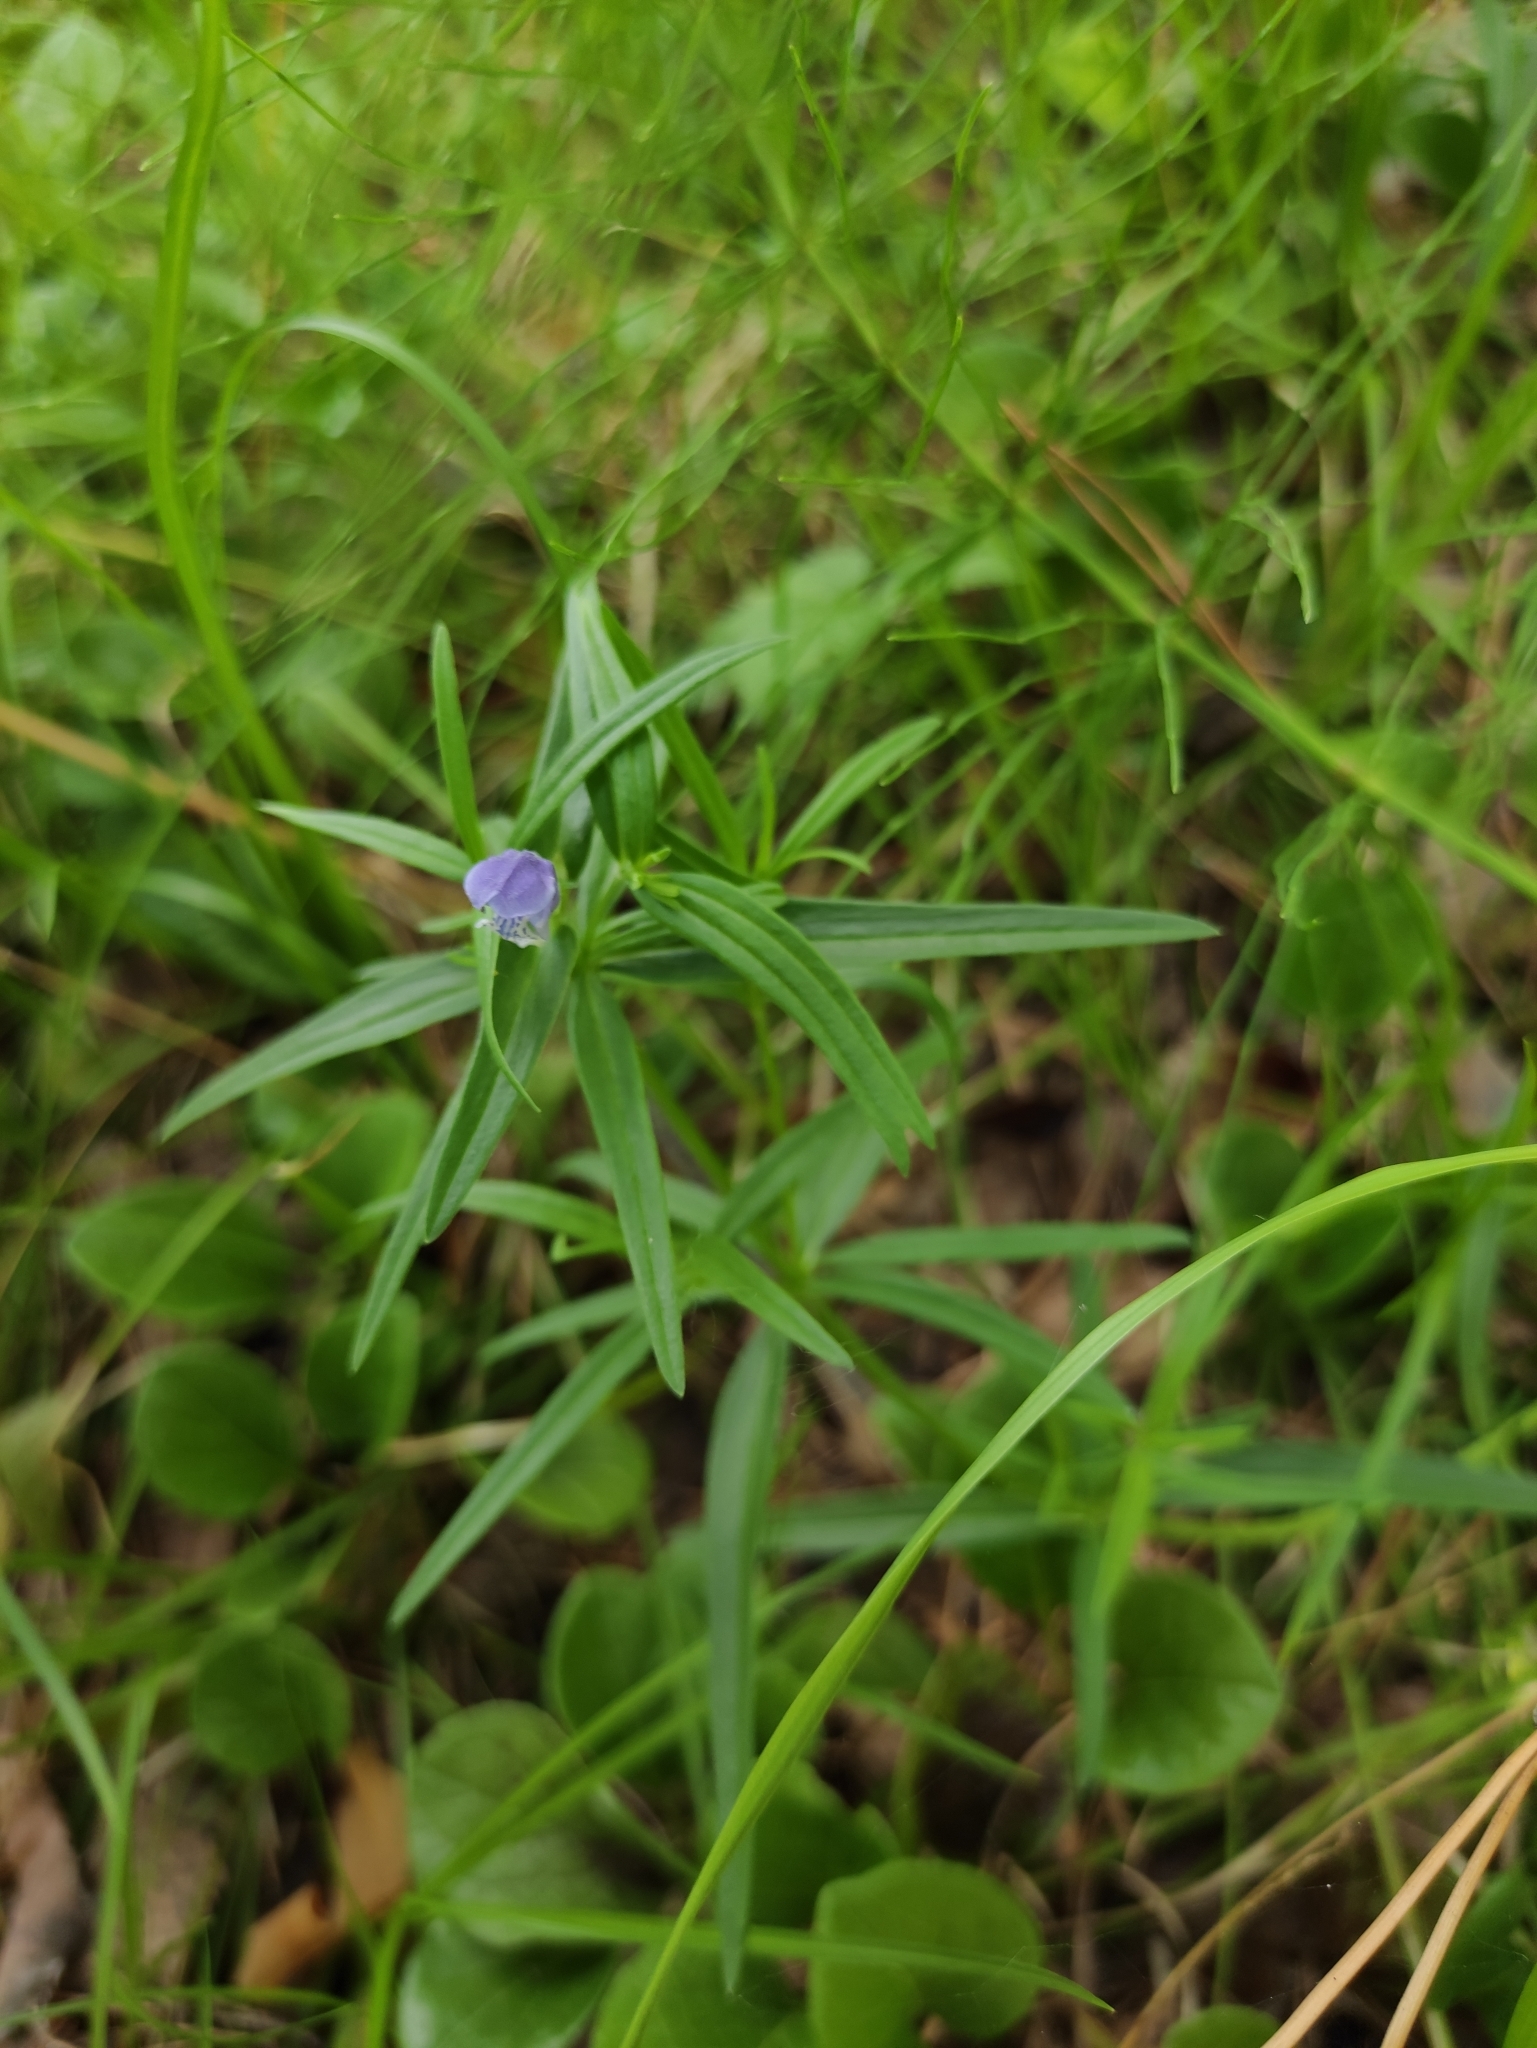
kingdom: Plantae
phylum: Tracheophyta
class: Magnoliopsida
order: Lamiales
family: Lamiaceae
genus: Dracocephalum
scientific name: Dracocephalum ruyschiana
